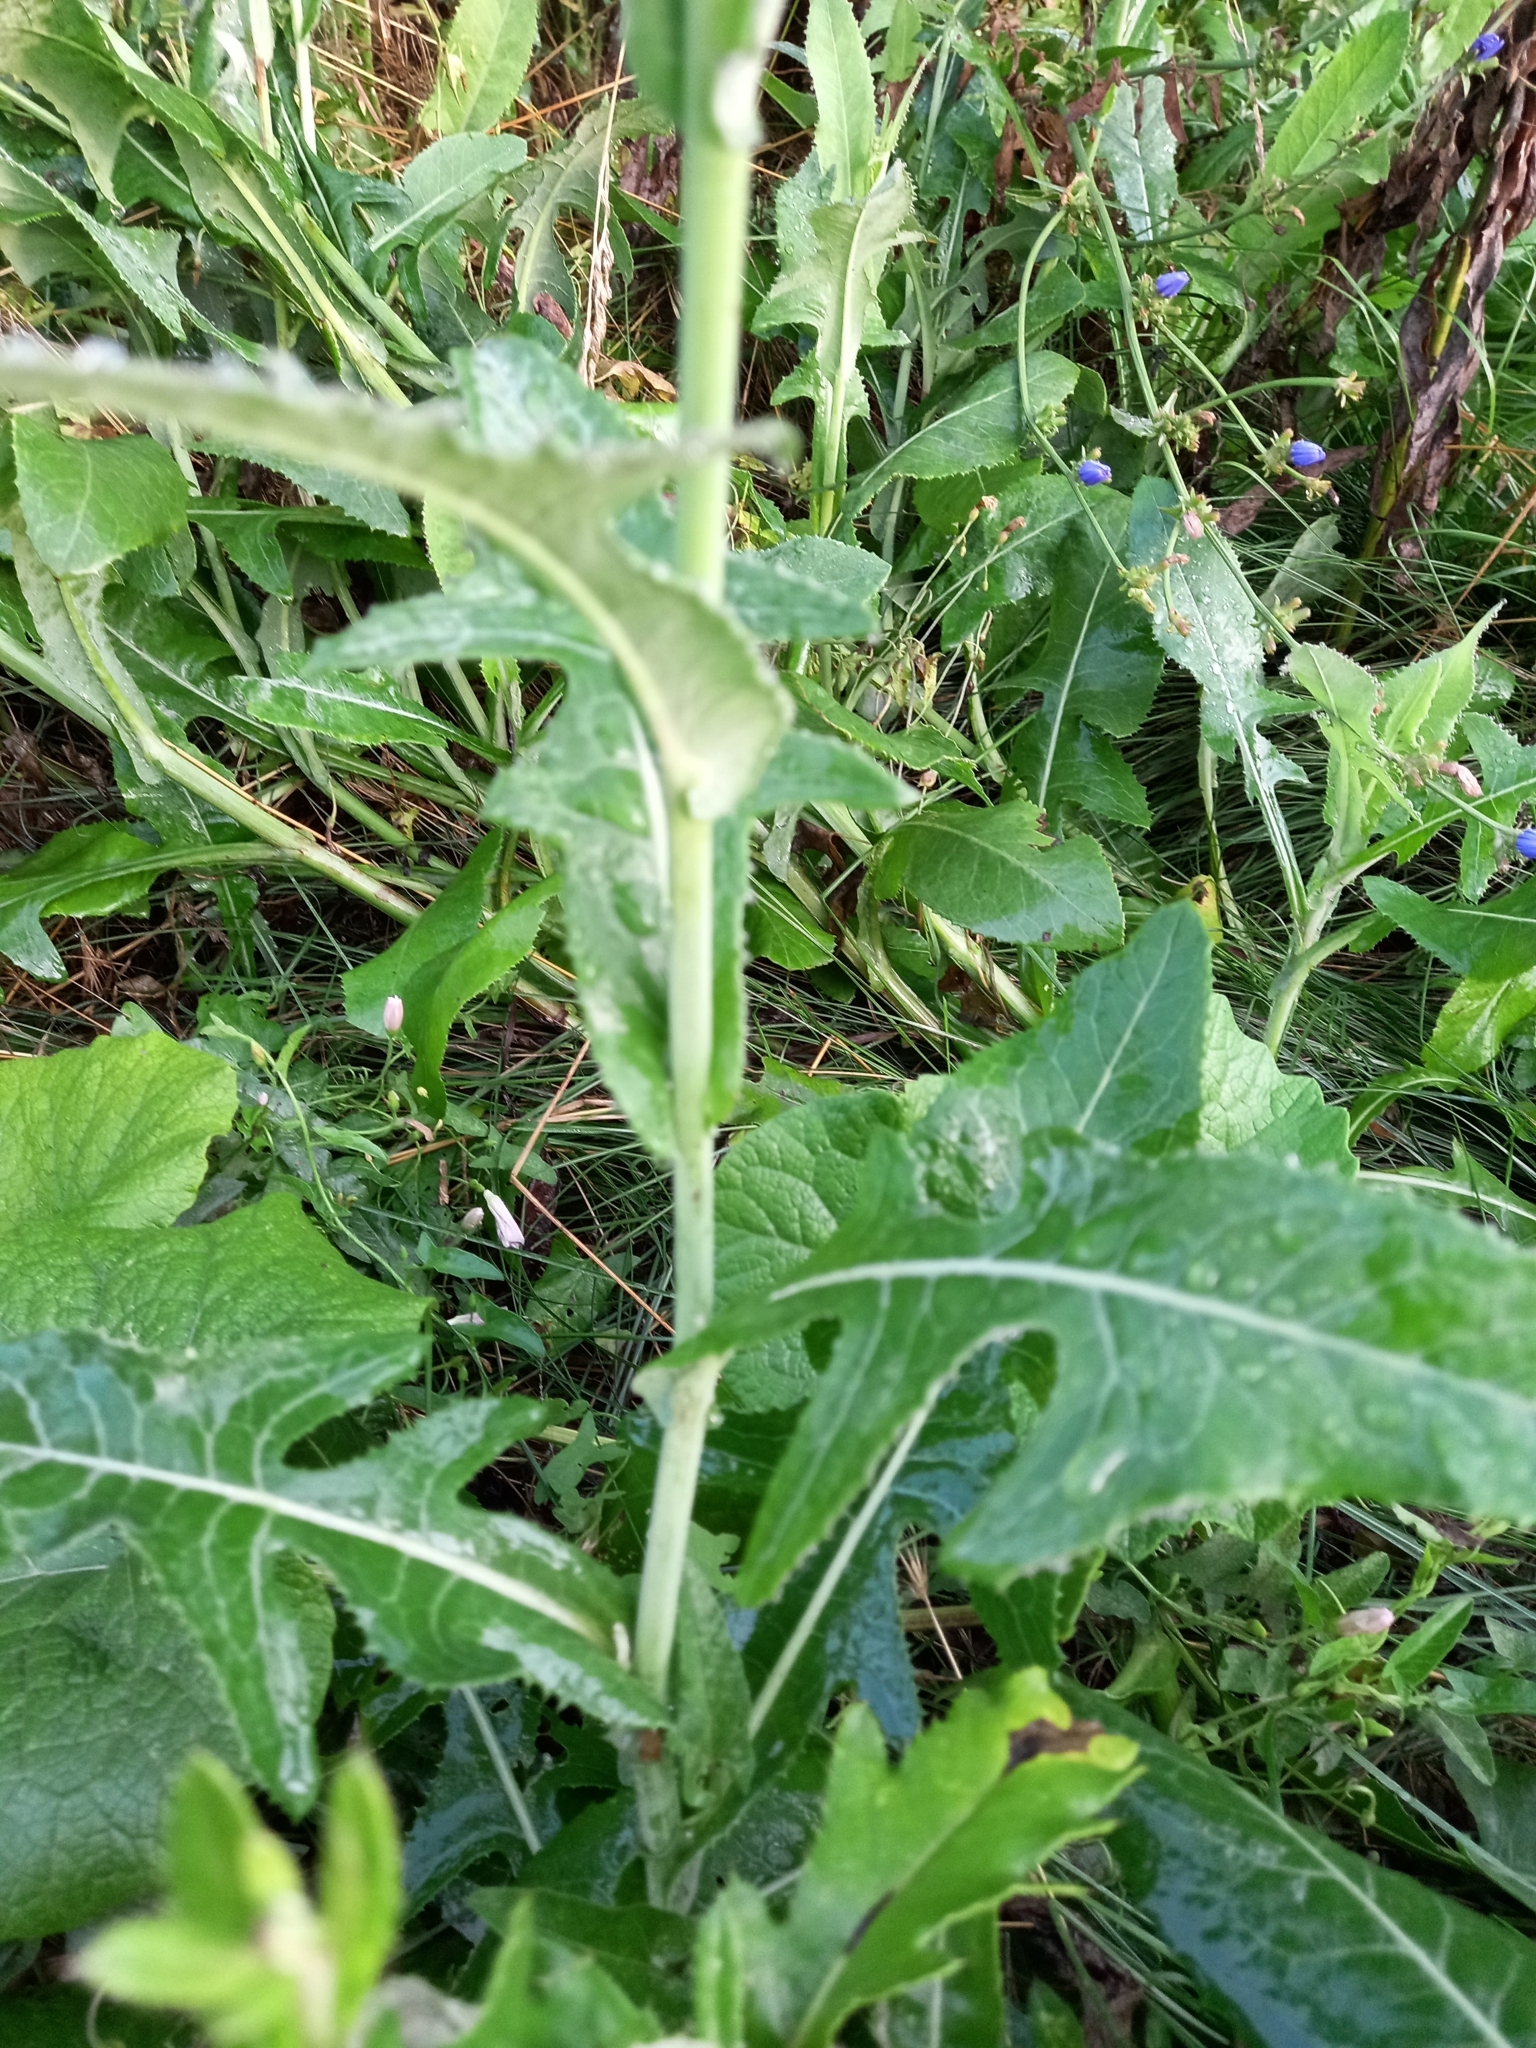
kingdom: Plantae
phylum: Tracheophyta
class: Magnoliopsida
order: Asterales
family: Asteraceae
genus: Sonchus
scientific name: Sonchus arvensis
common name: Perennial sow-thistle
